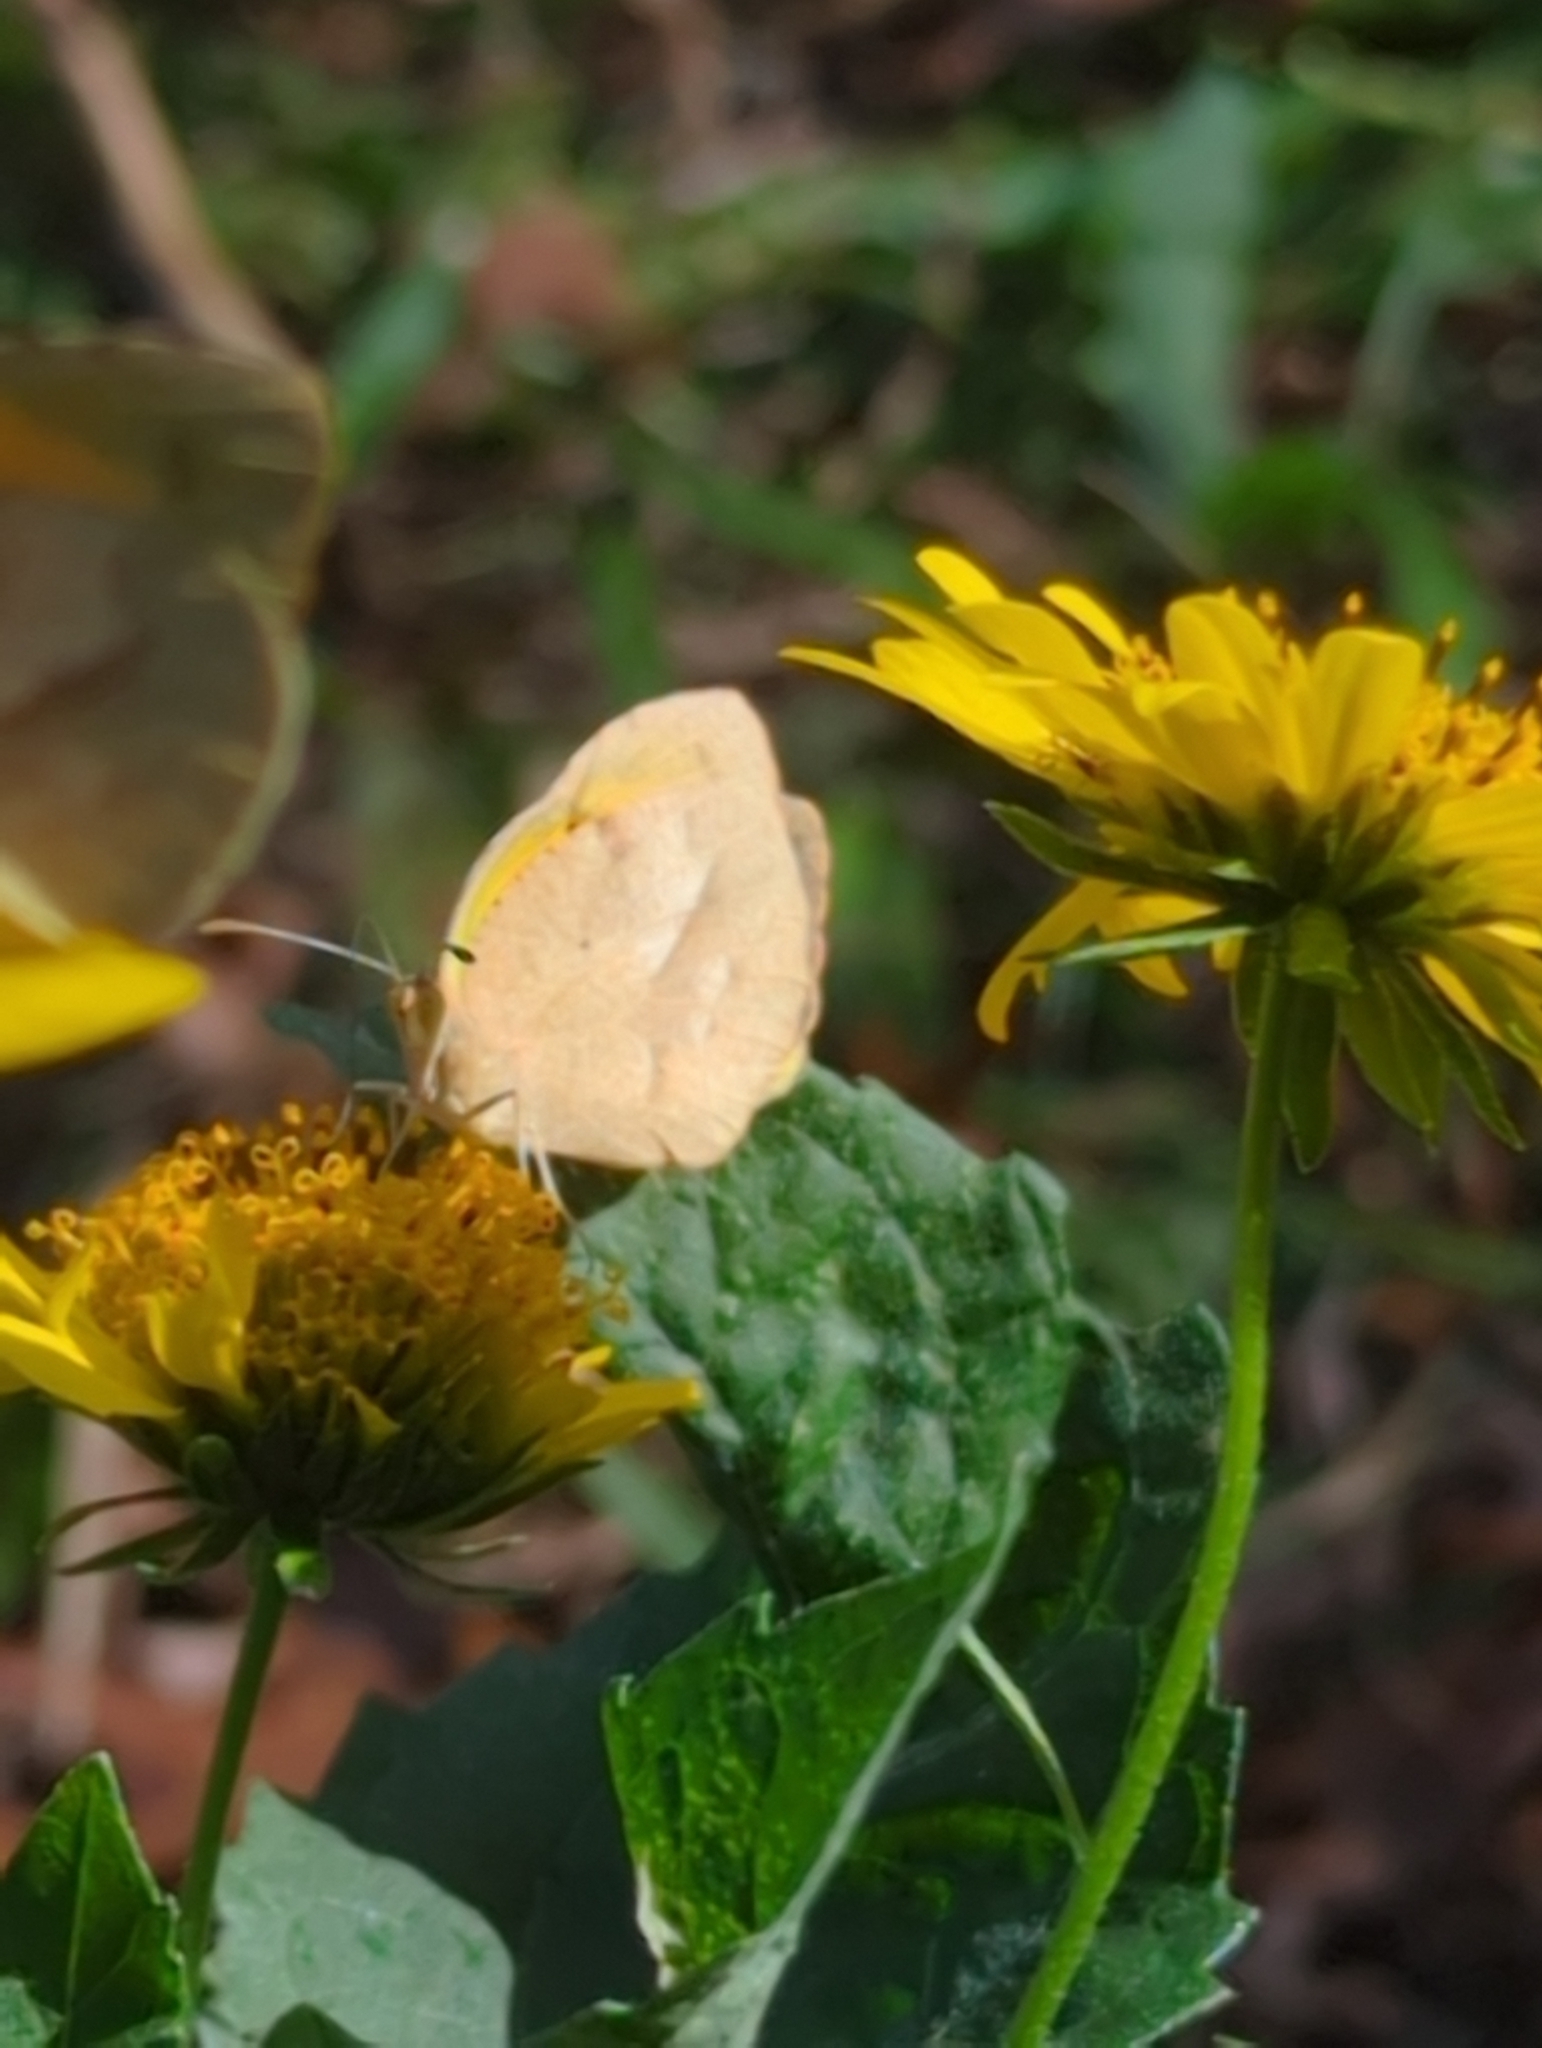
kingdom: Animalia
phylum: Arthropoda
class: Insecta
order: Lepidoptera
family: Pieridae
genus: Abaeis
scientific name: Abaeis nicippe
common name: Sleepy orange
